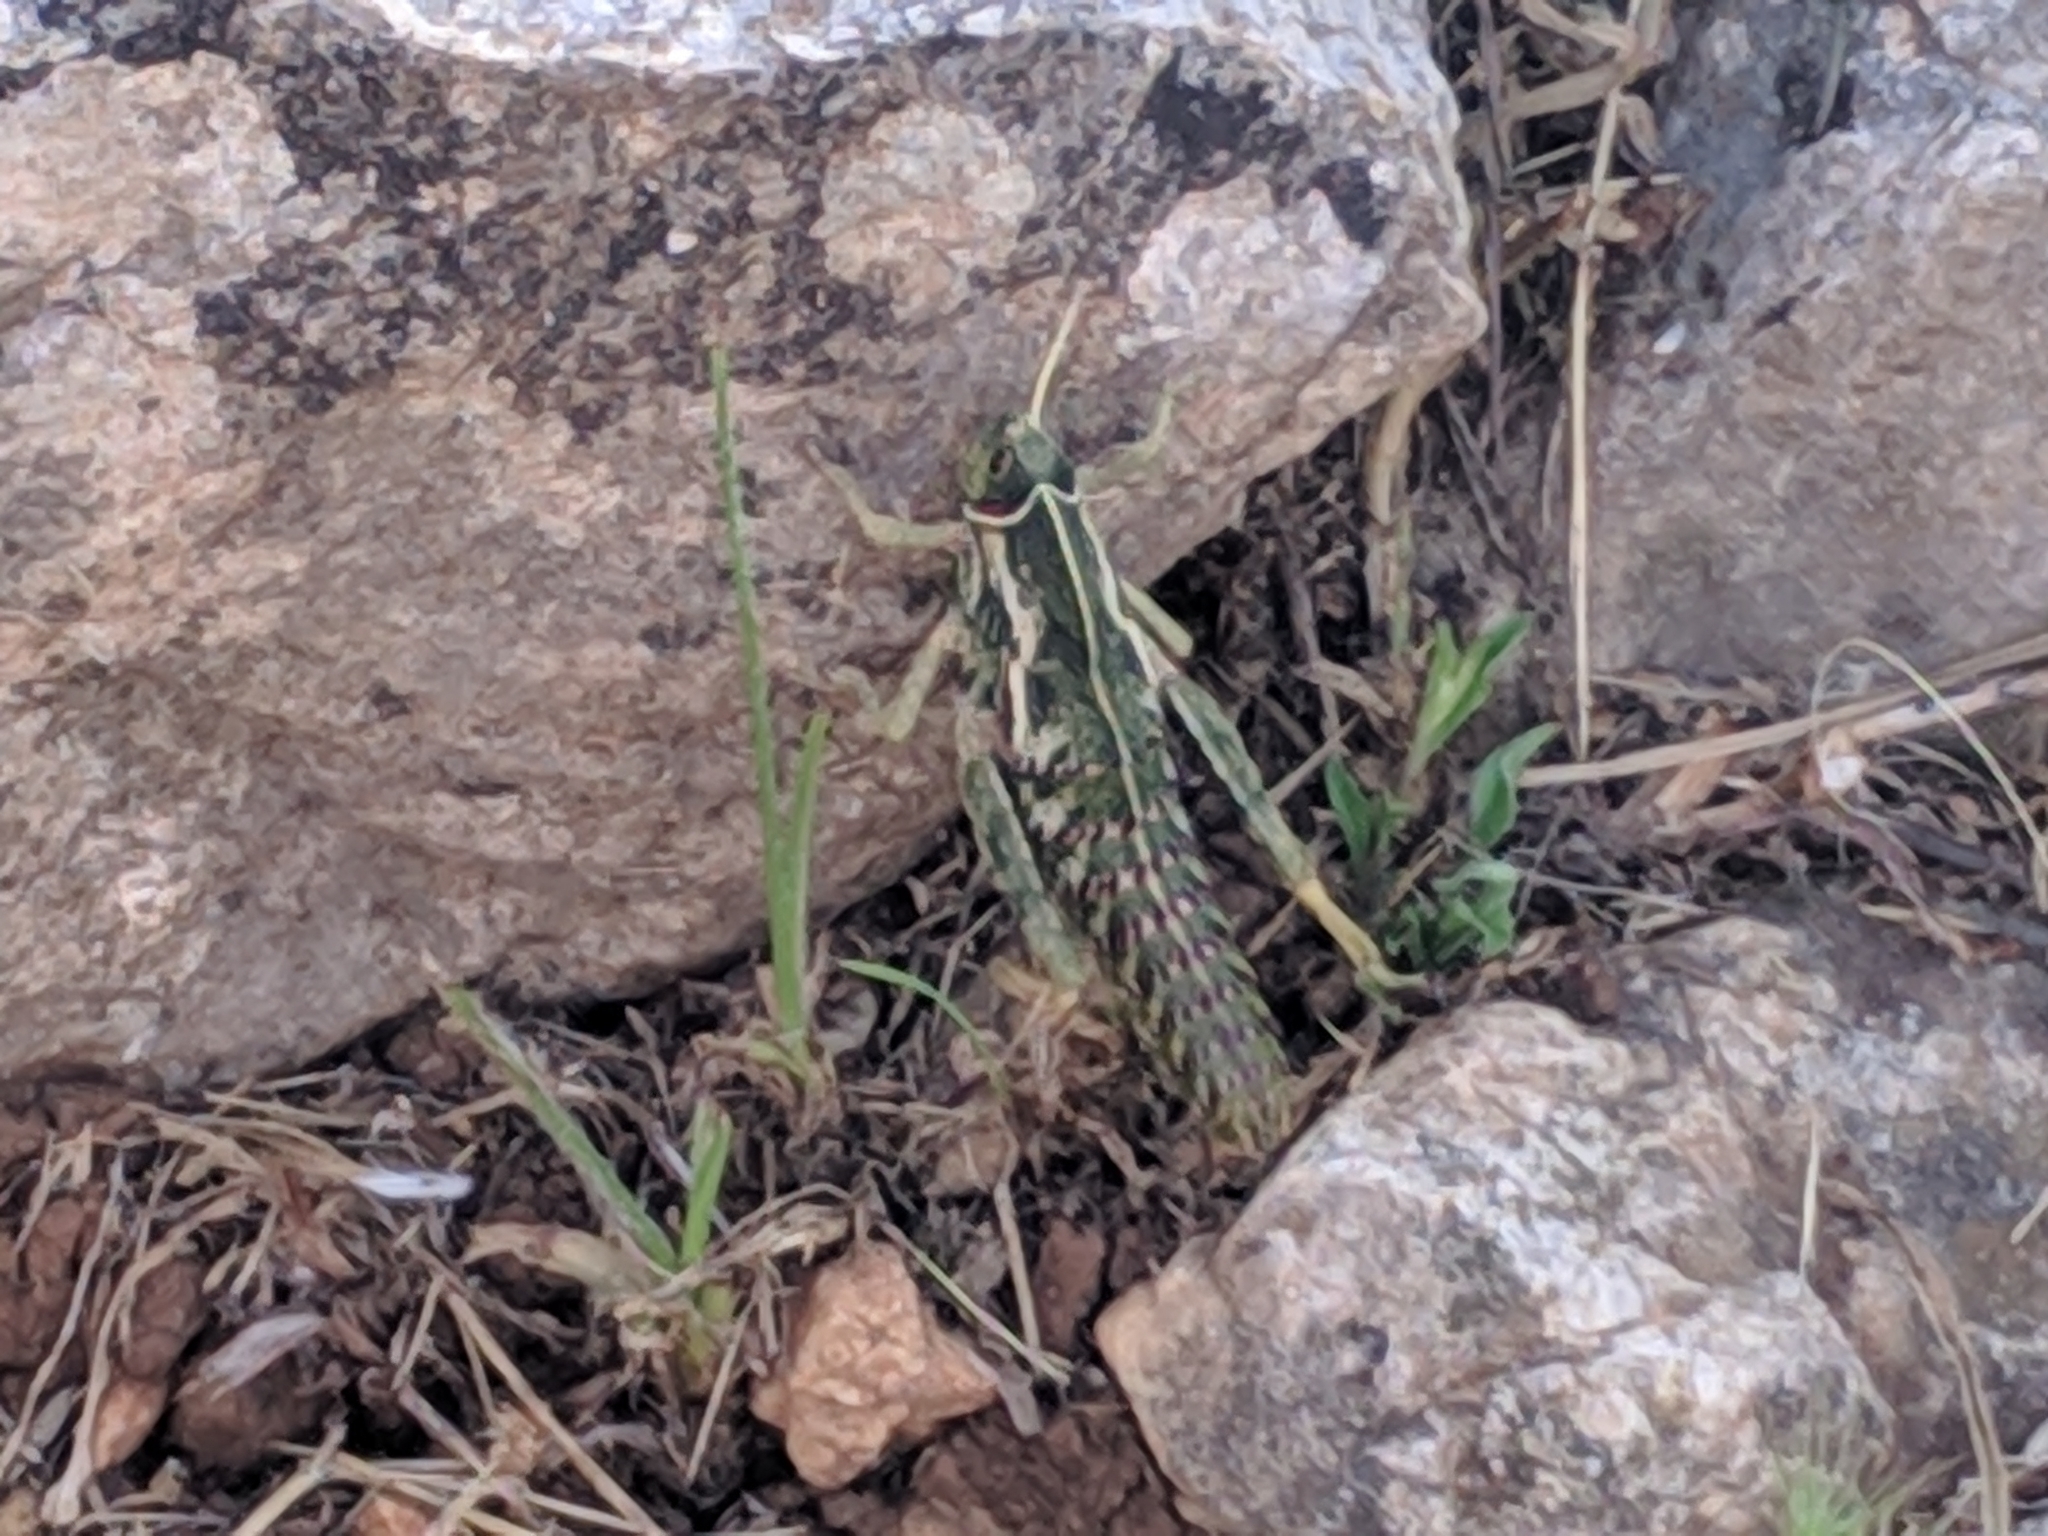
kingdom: Animalia
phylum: Arthropoda
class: Insecta
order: Orthoptera
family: Pamphagidae
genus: Pamphagus
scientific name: Pamphagus marmoratus
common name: Marbled stone grasshopper
